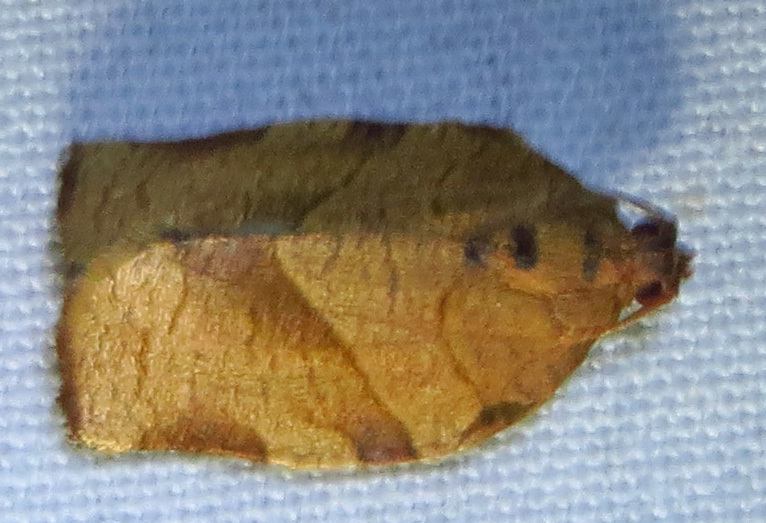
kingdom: Animalia
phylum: Arthropoda
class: Insecta
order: Lepidoptera
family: Tortricidae
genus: Choristoneura
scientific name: Choristoneura rosaceana
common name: Oblique-banded leafroller moth
